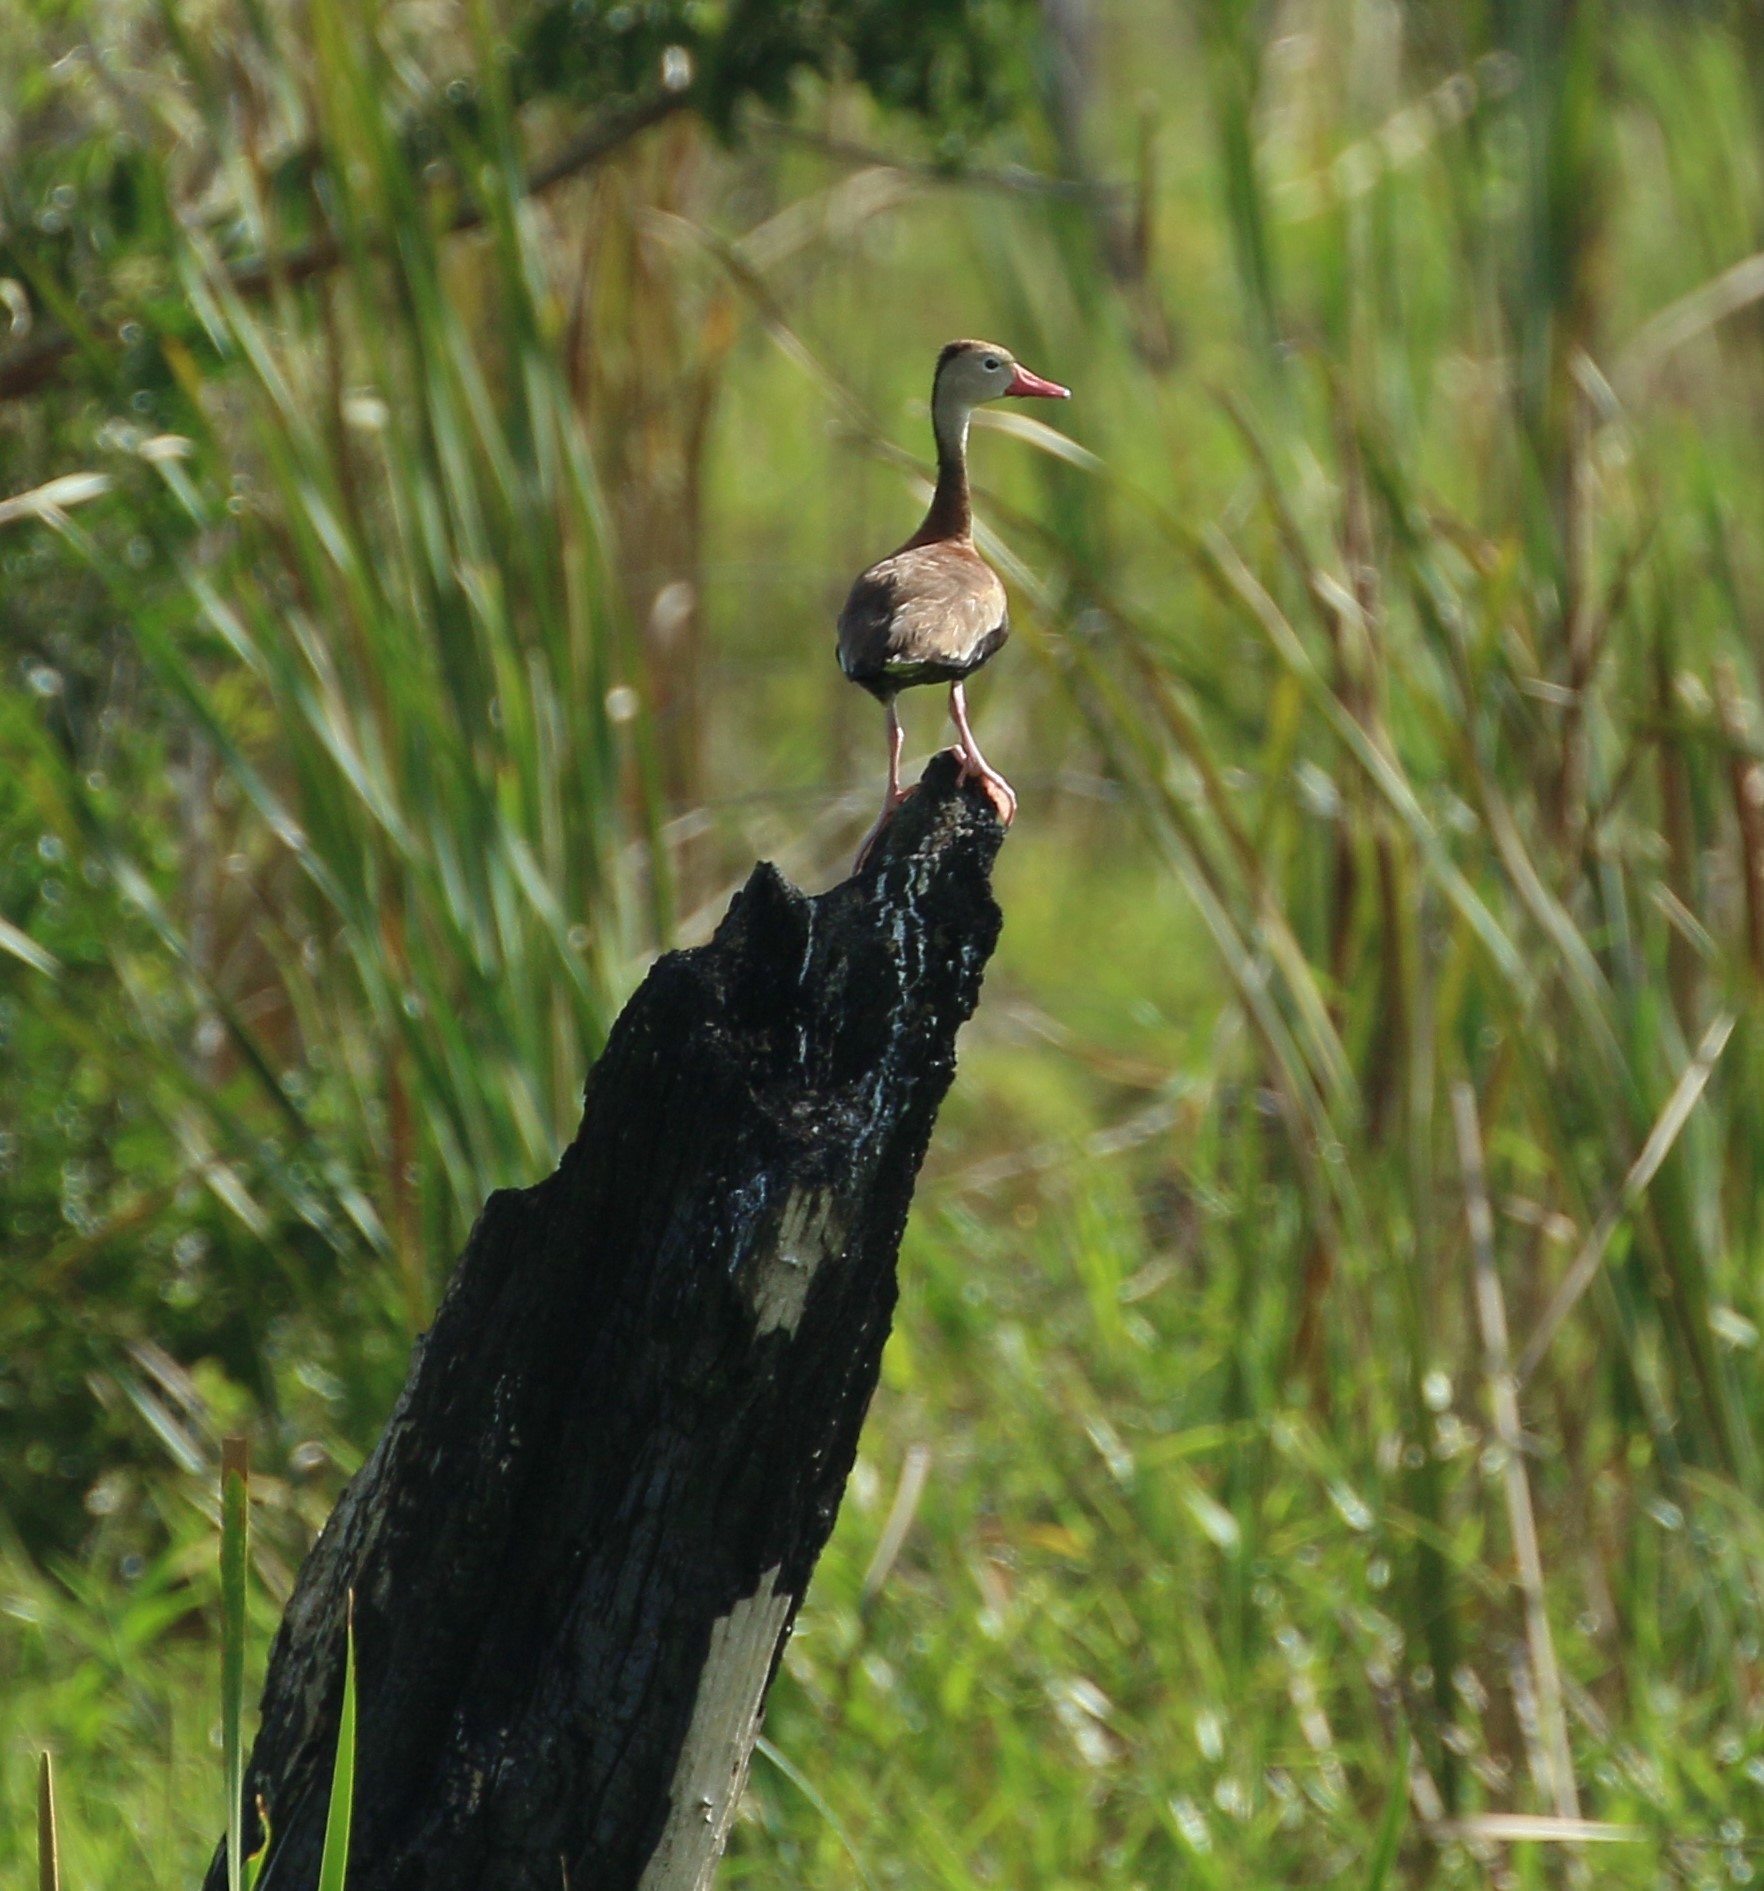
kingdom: Animalia
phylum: Chordata
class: Aves
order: Anseriformes
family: Anatidae
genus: Dendrocygna
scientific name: Dendrocygna autumnalis
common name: Black-bellied whistling duck
